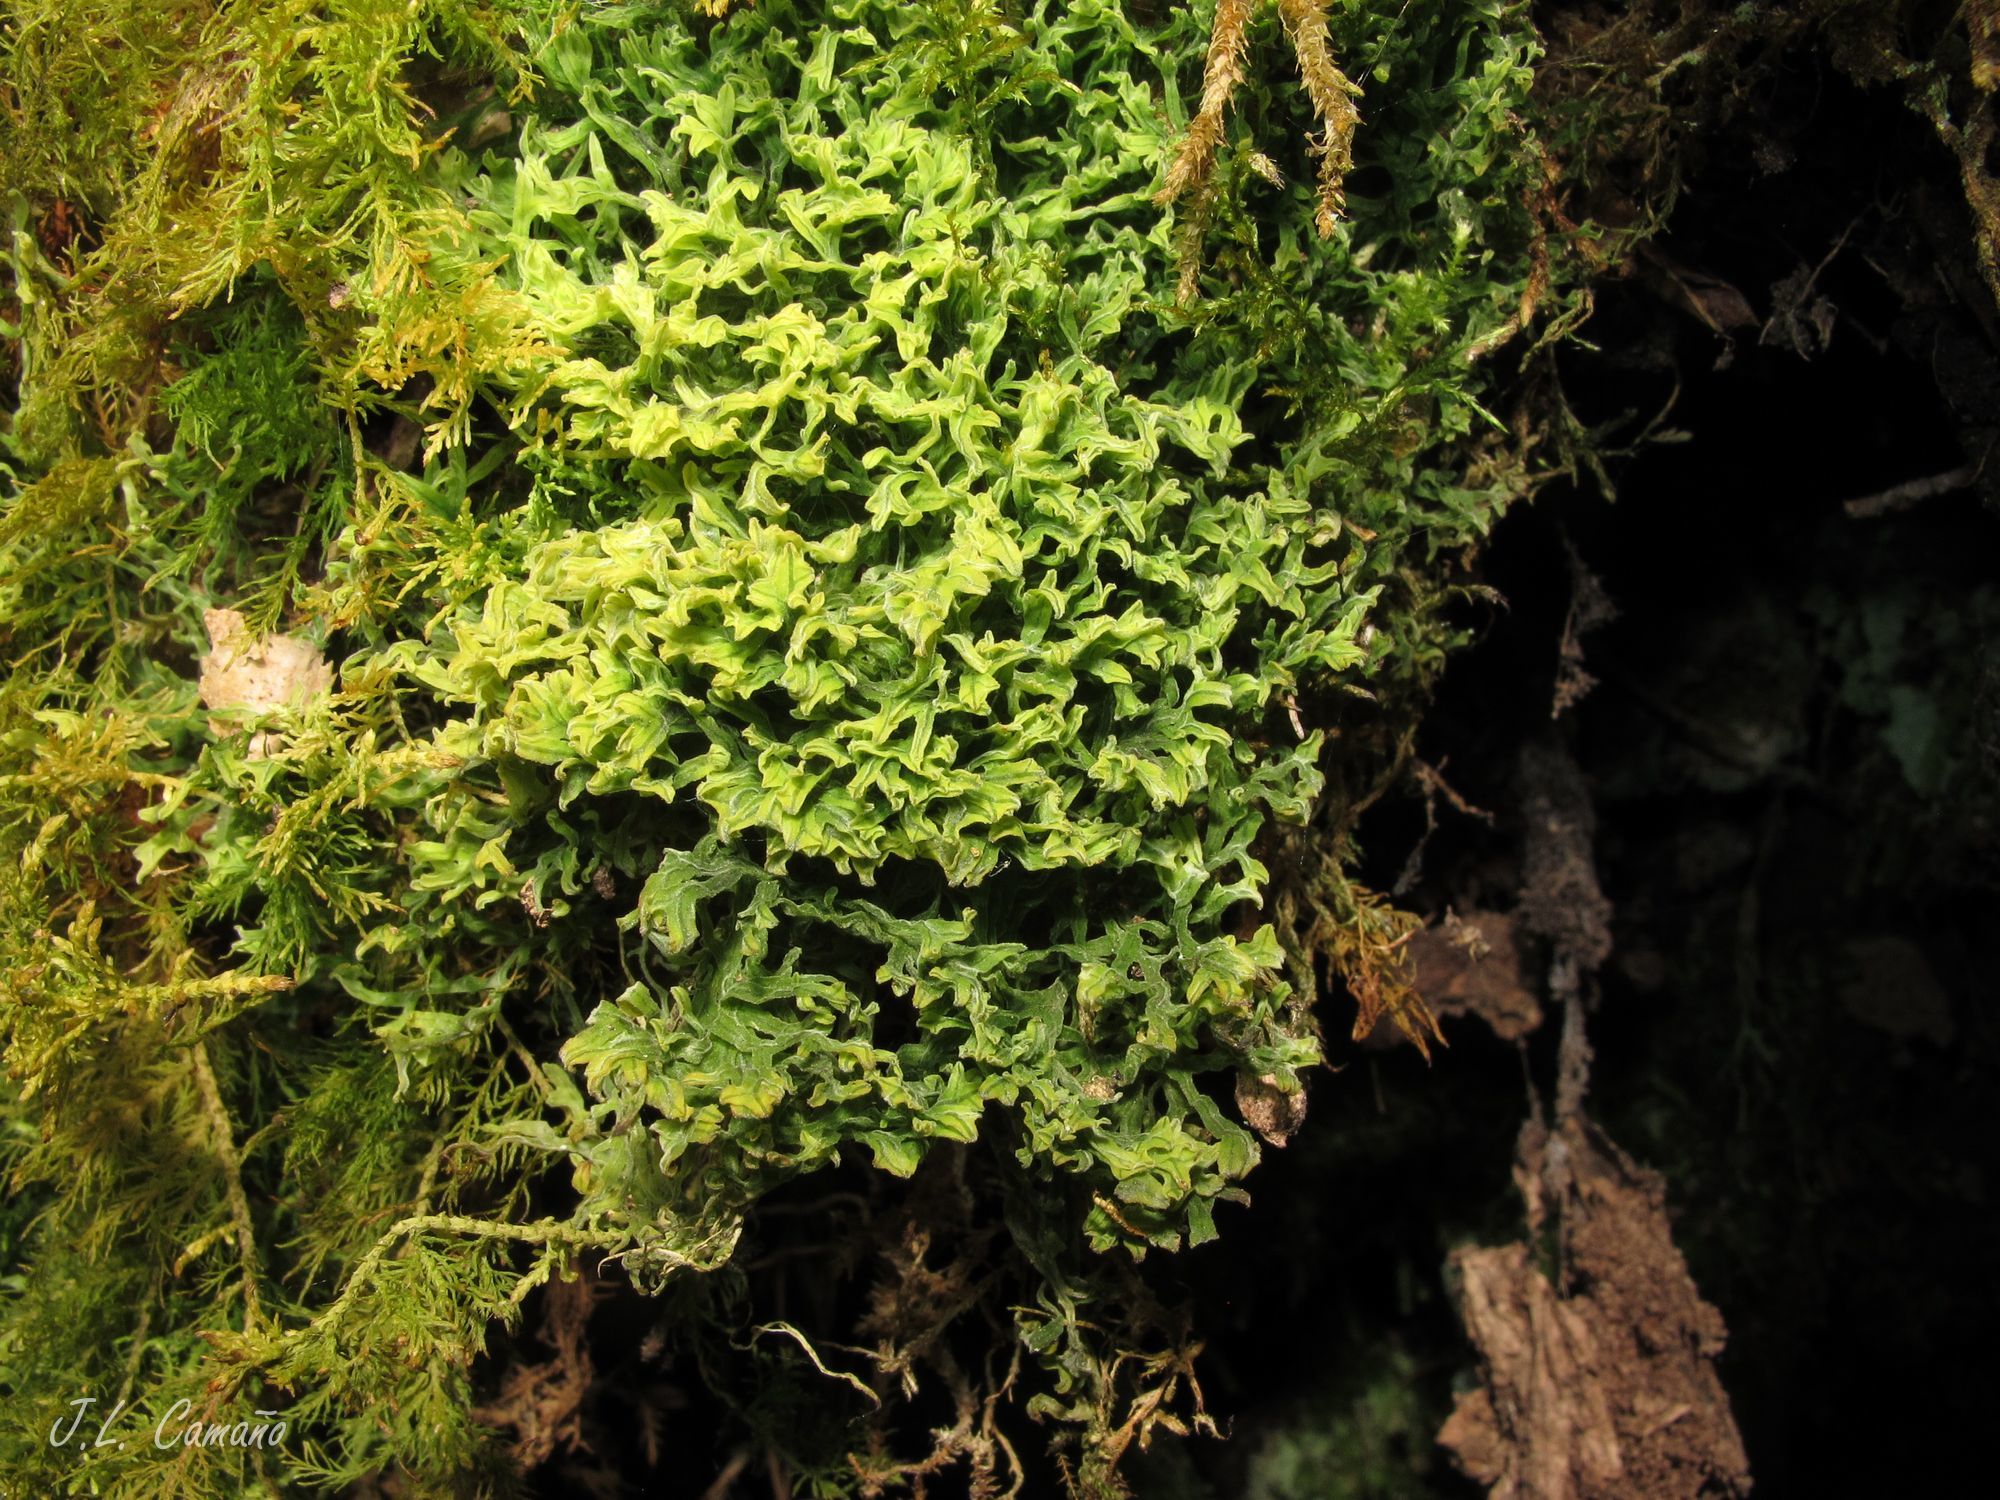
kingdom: Plantae
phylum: Marchantiophyta
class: Jungermanniopsida
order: Metzgeriales
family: Metzgeriaceae
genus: Metzgeria
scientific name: Metzgeria pubescens
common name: Downy veilwort
